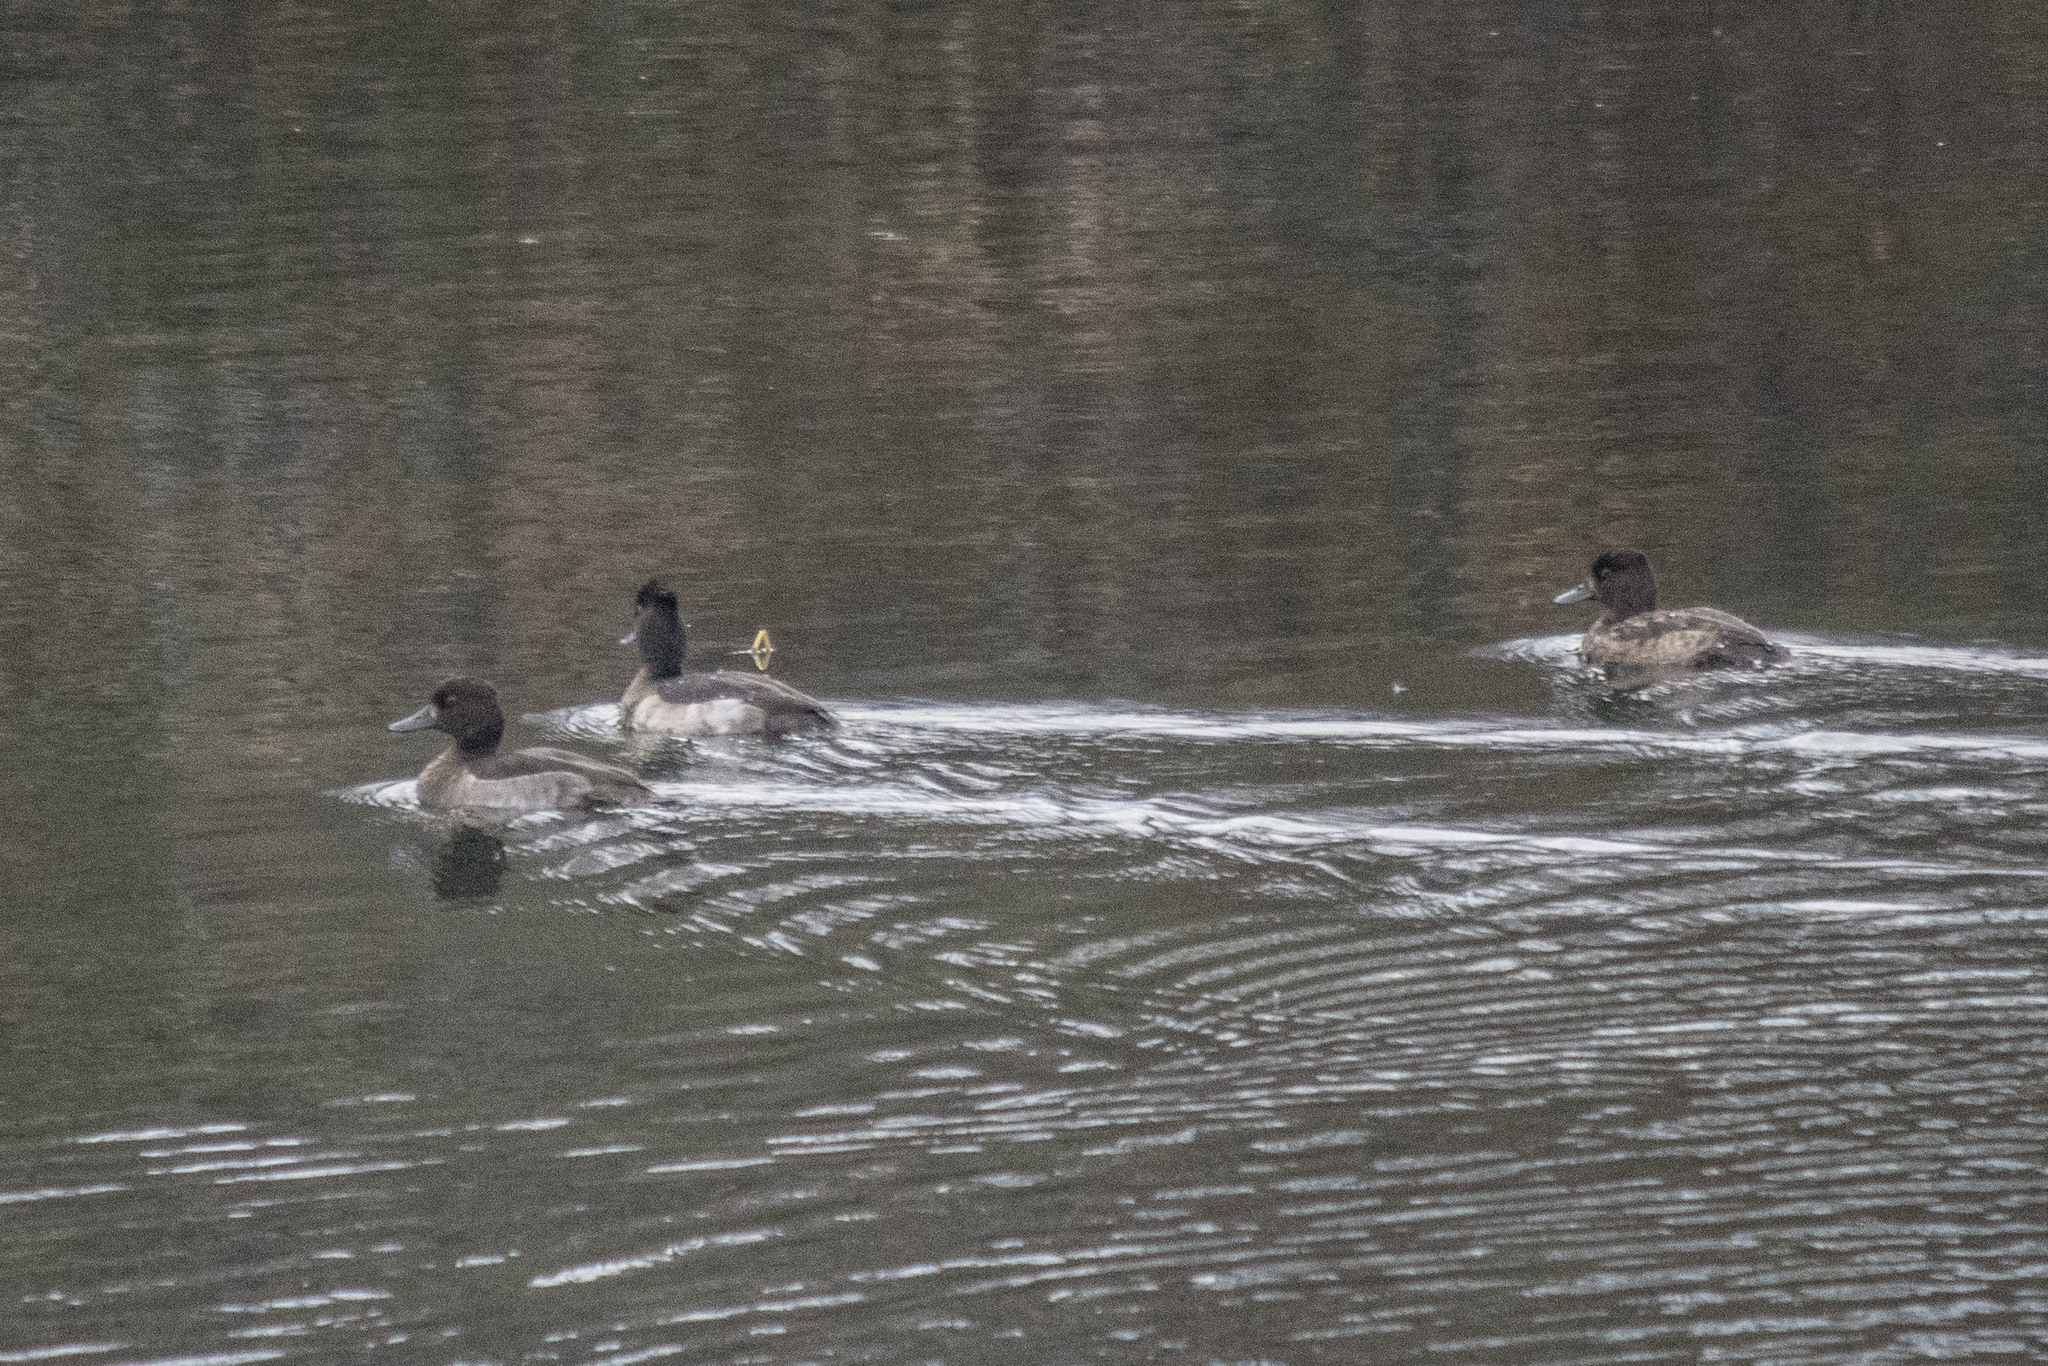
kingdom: Animalia
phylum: Chordata
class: Aves
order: Anseriformes
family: Anatidae
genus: Aythya
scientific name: Aythya fuligula
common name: Tufted duck
